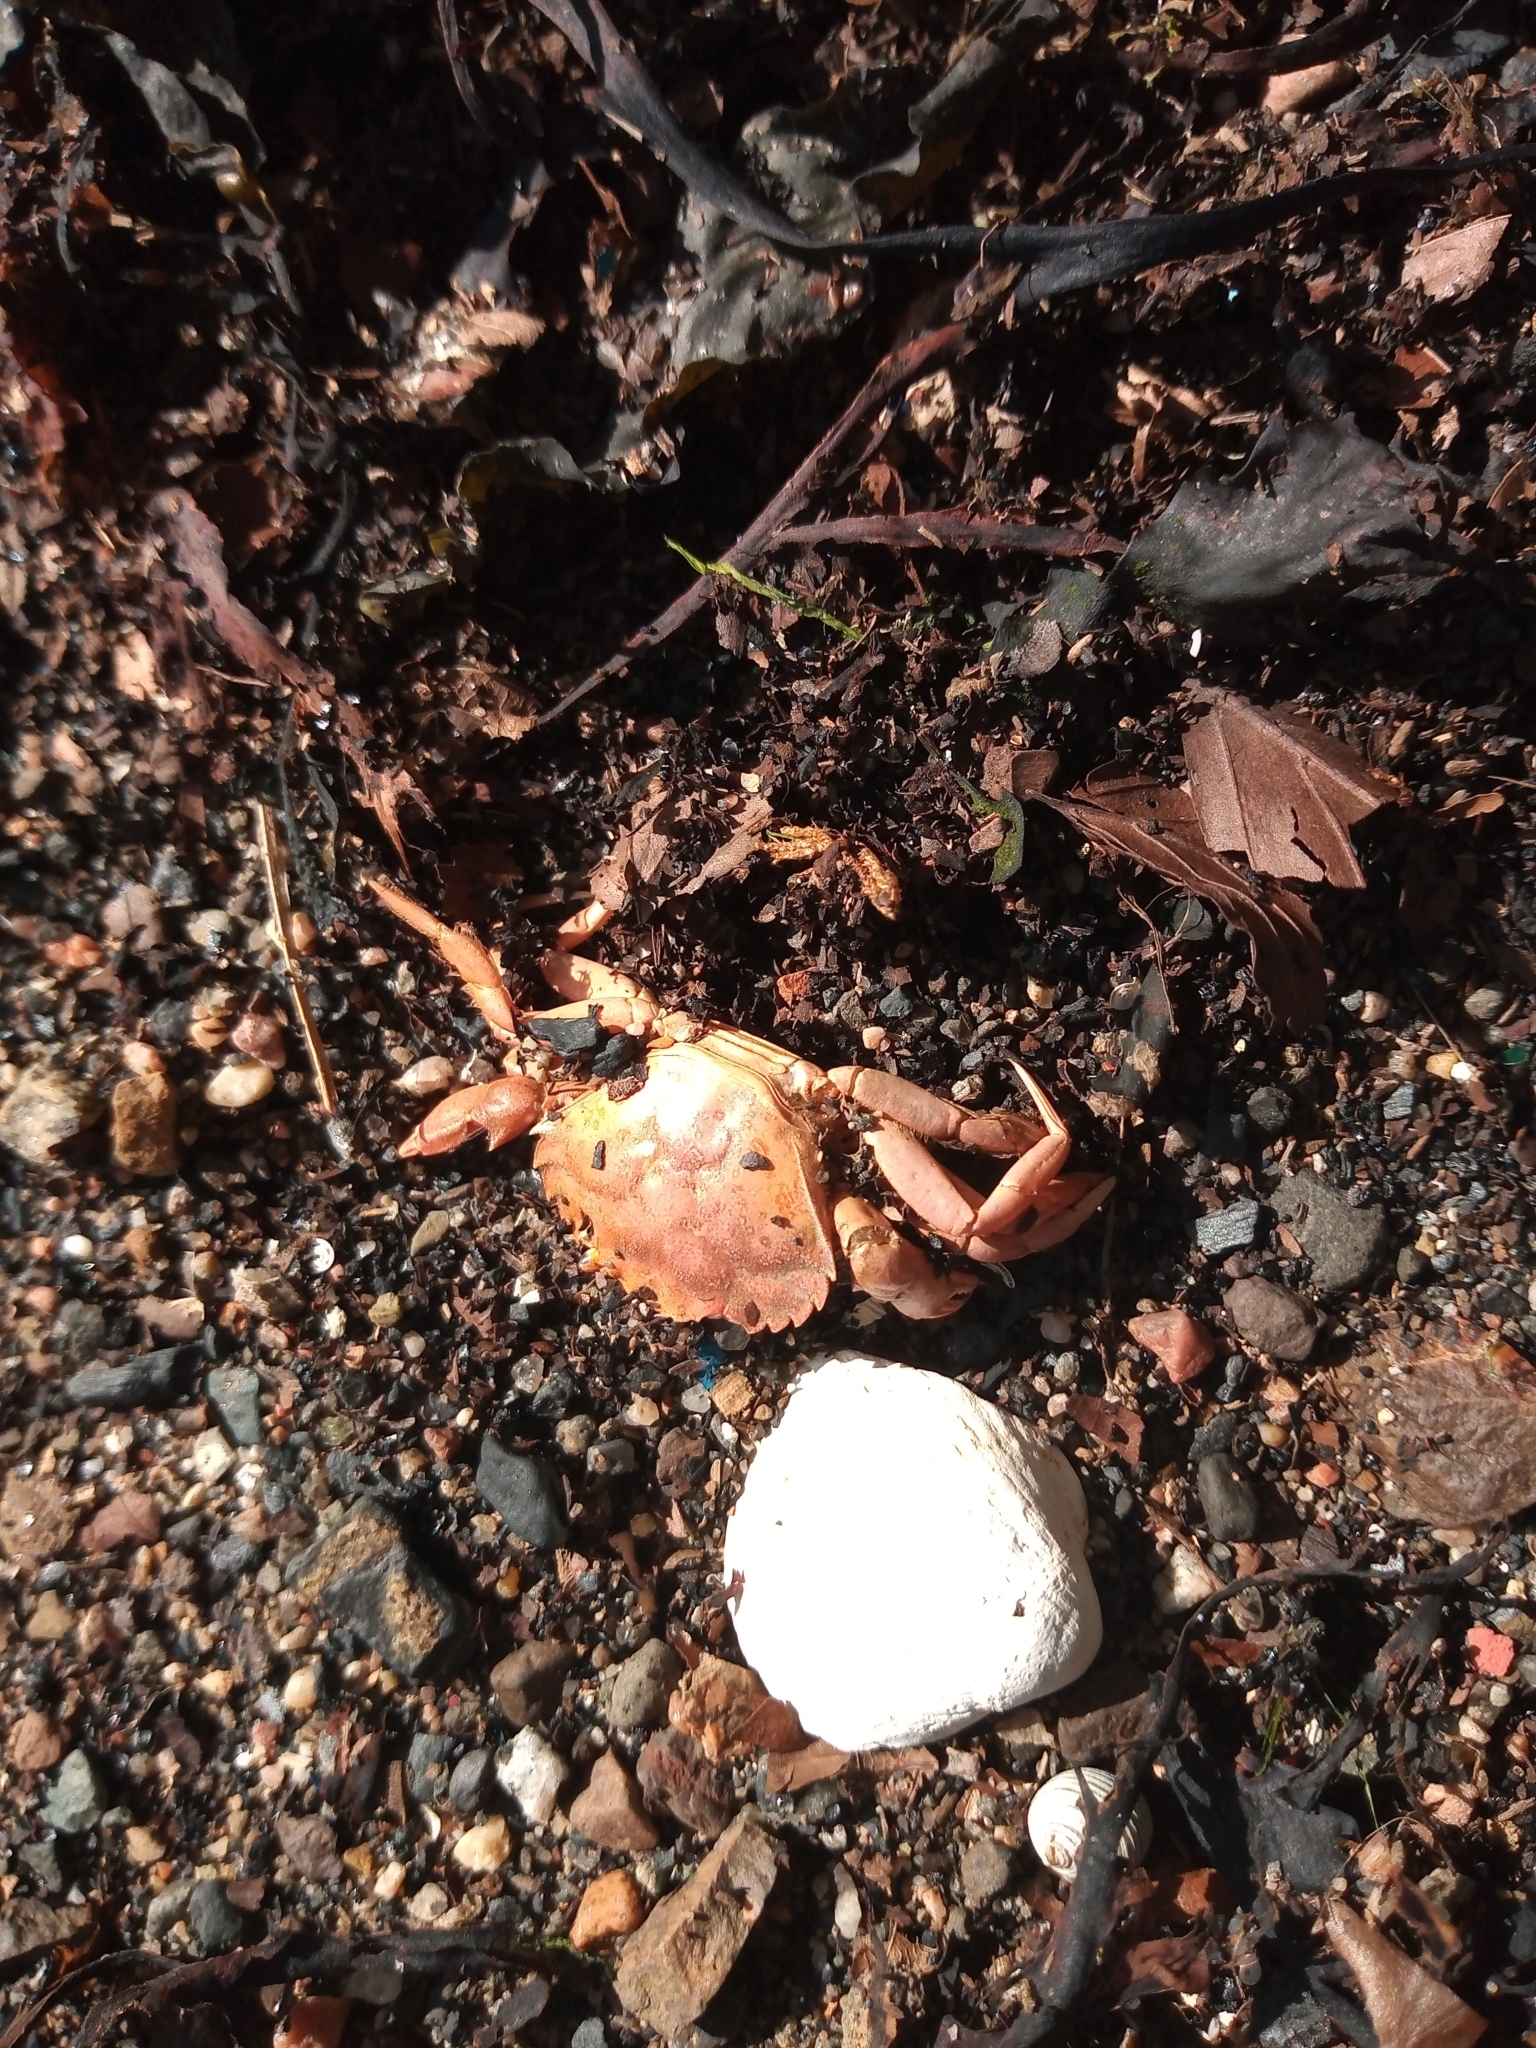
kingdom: Animalia
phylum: Arthropoda
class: Malacostraca
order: Decapoda
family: Carcinidae
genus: Carcinus
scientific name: Carcinus maenas
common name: European green crab
